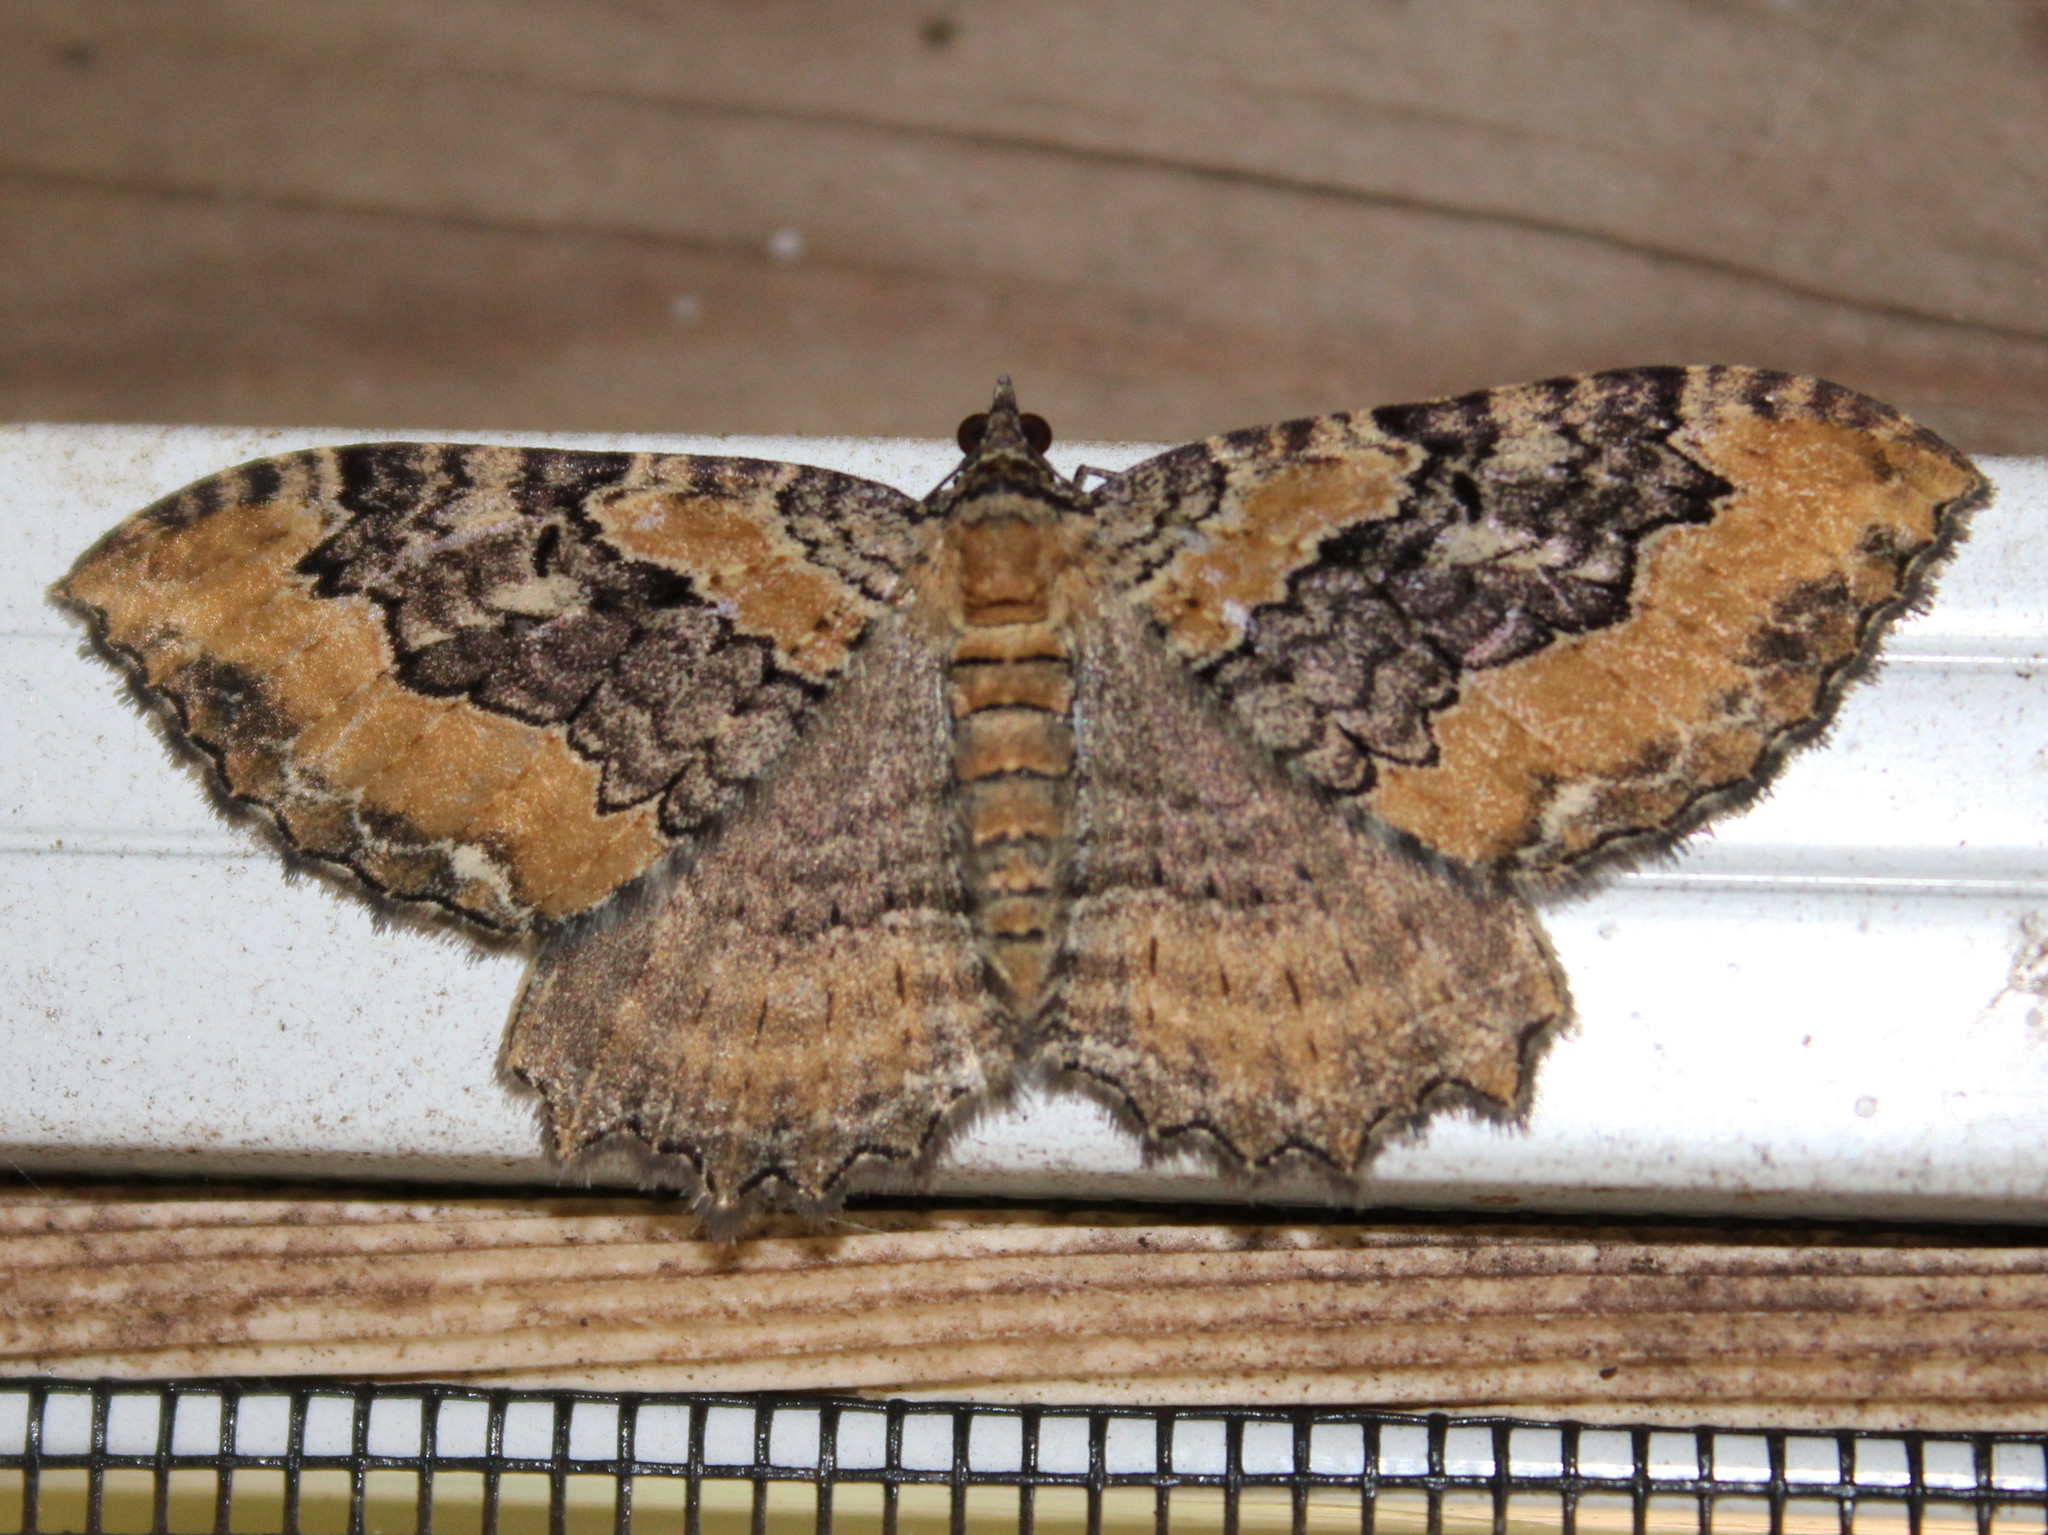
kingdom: Animalia
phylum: Arthropoda
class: Insecta
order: Lepidoptera
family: Geometridae
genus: Rheumaptera
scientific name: Rheumaptera
